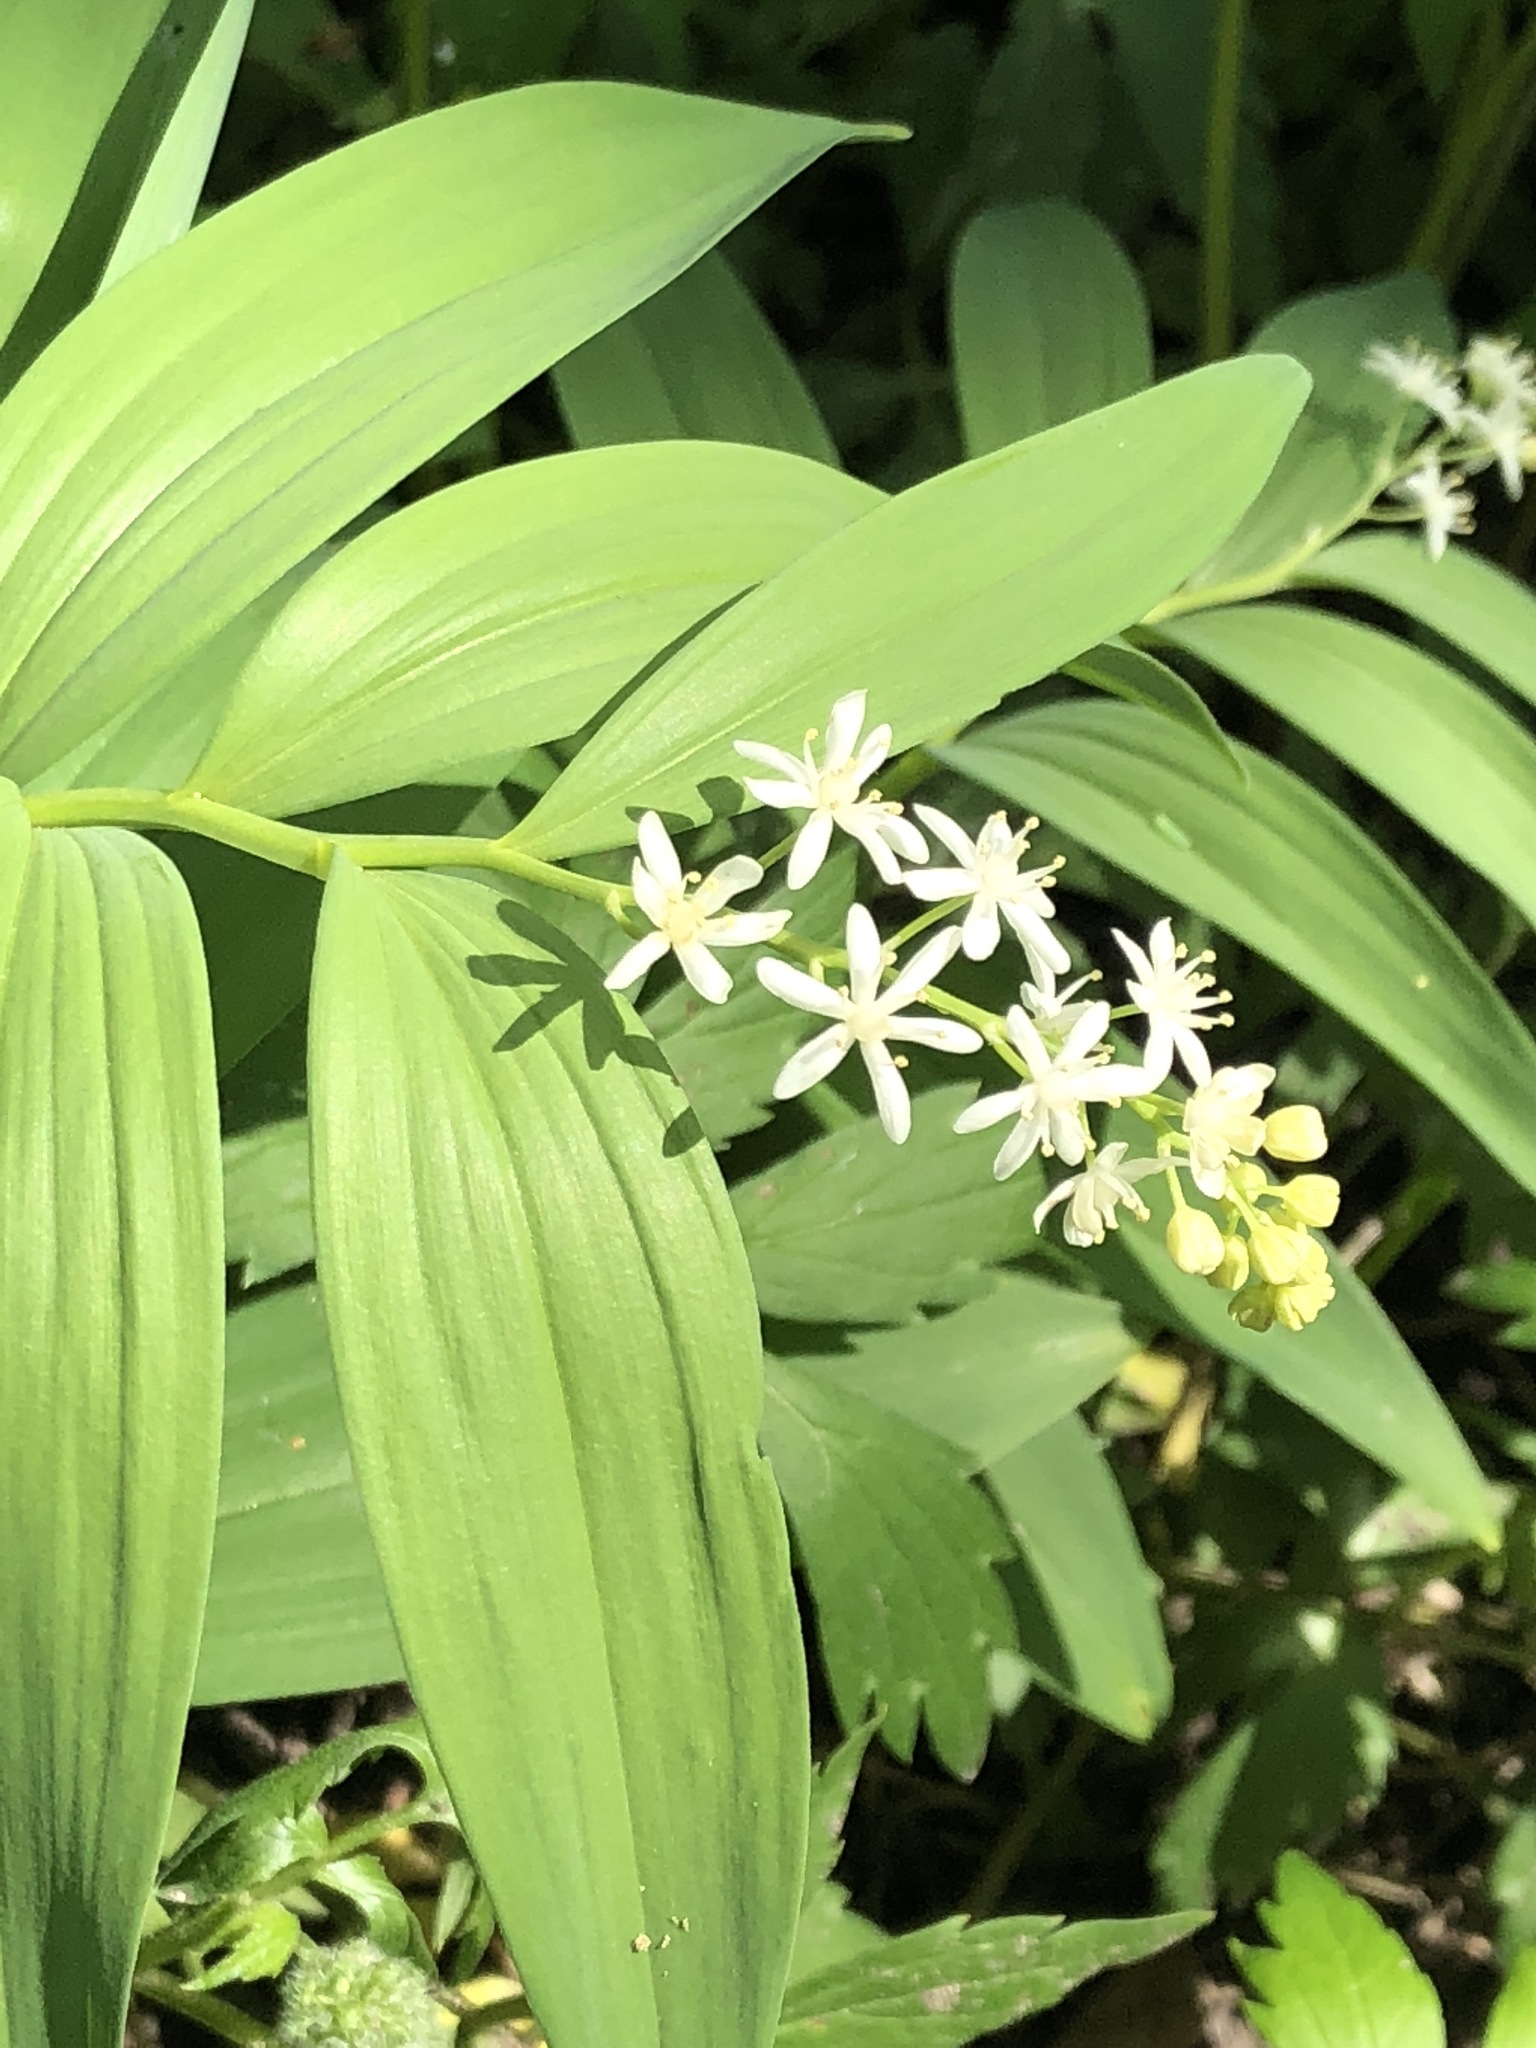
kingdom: Plantae
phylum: Tracheophyta
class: Liliopsida
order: Asparagales
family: Asparagaceae
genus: Maianthemum
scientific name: Maianthemum stellatum
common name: Little false solomon's seal
